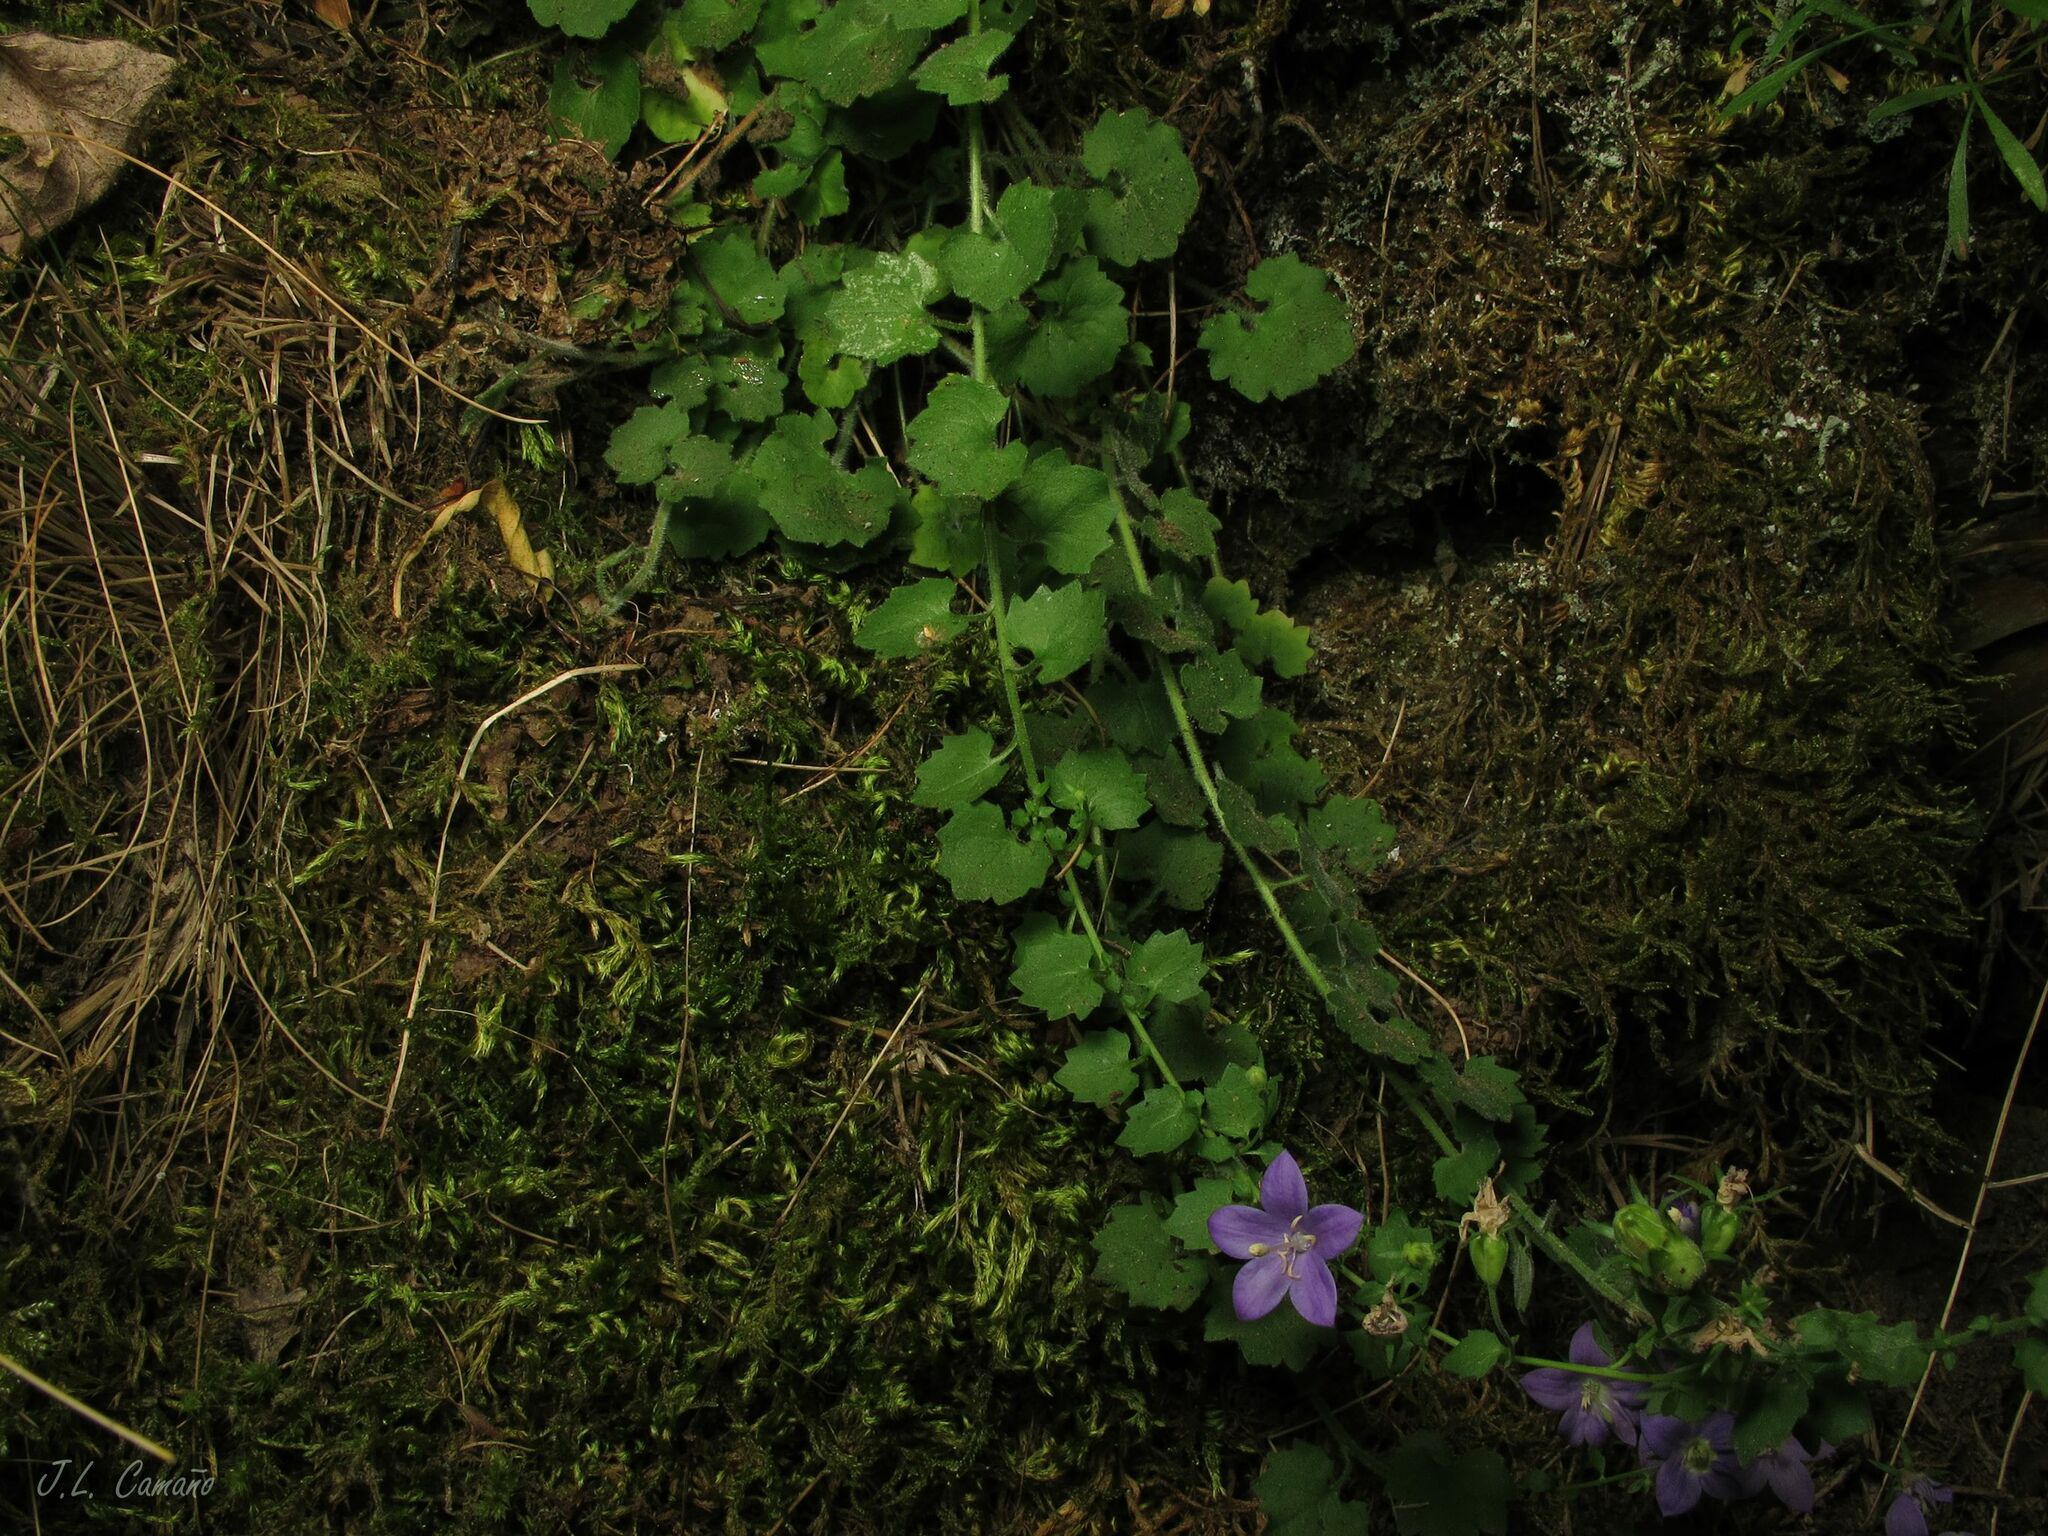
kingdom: Plantae
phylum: Tracheophyta
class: Magnoliopsida
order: Asterales
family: Campanulaceae
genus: Campanula
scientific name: Campanula arvatica
